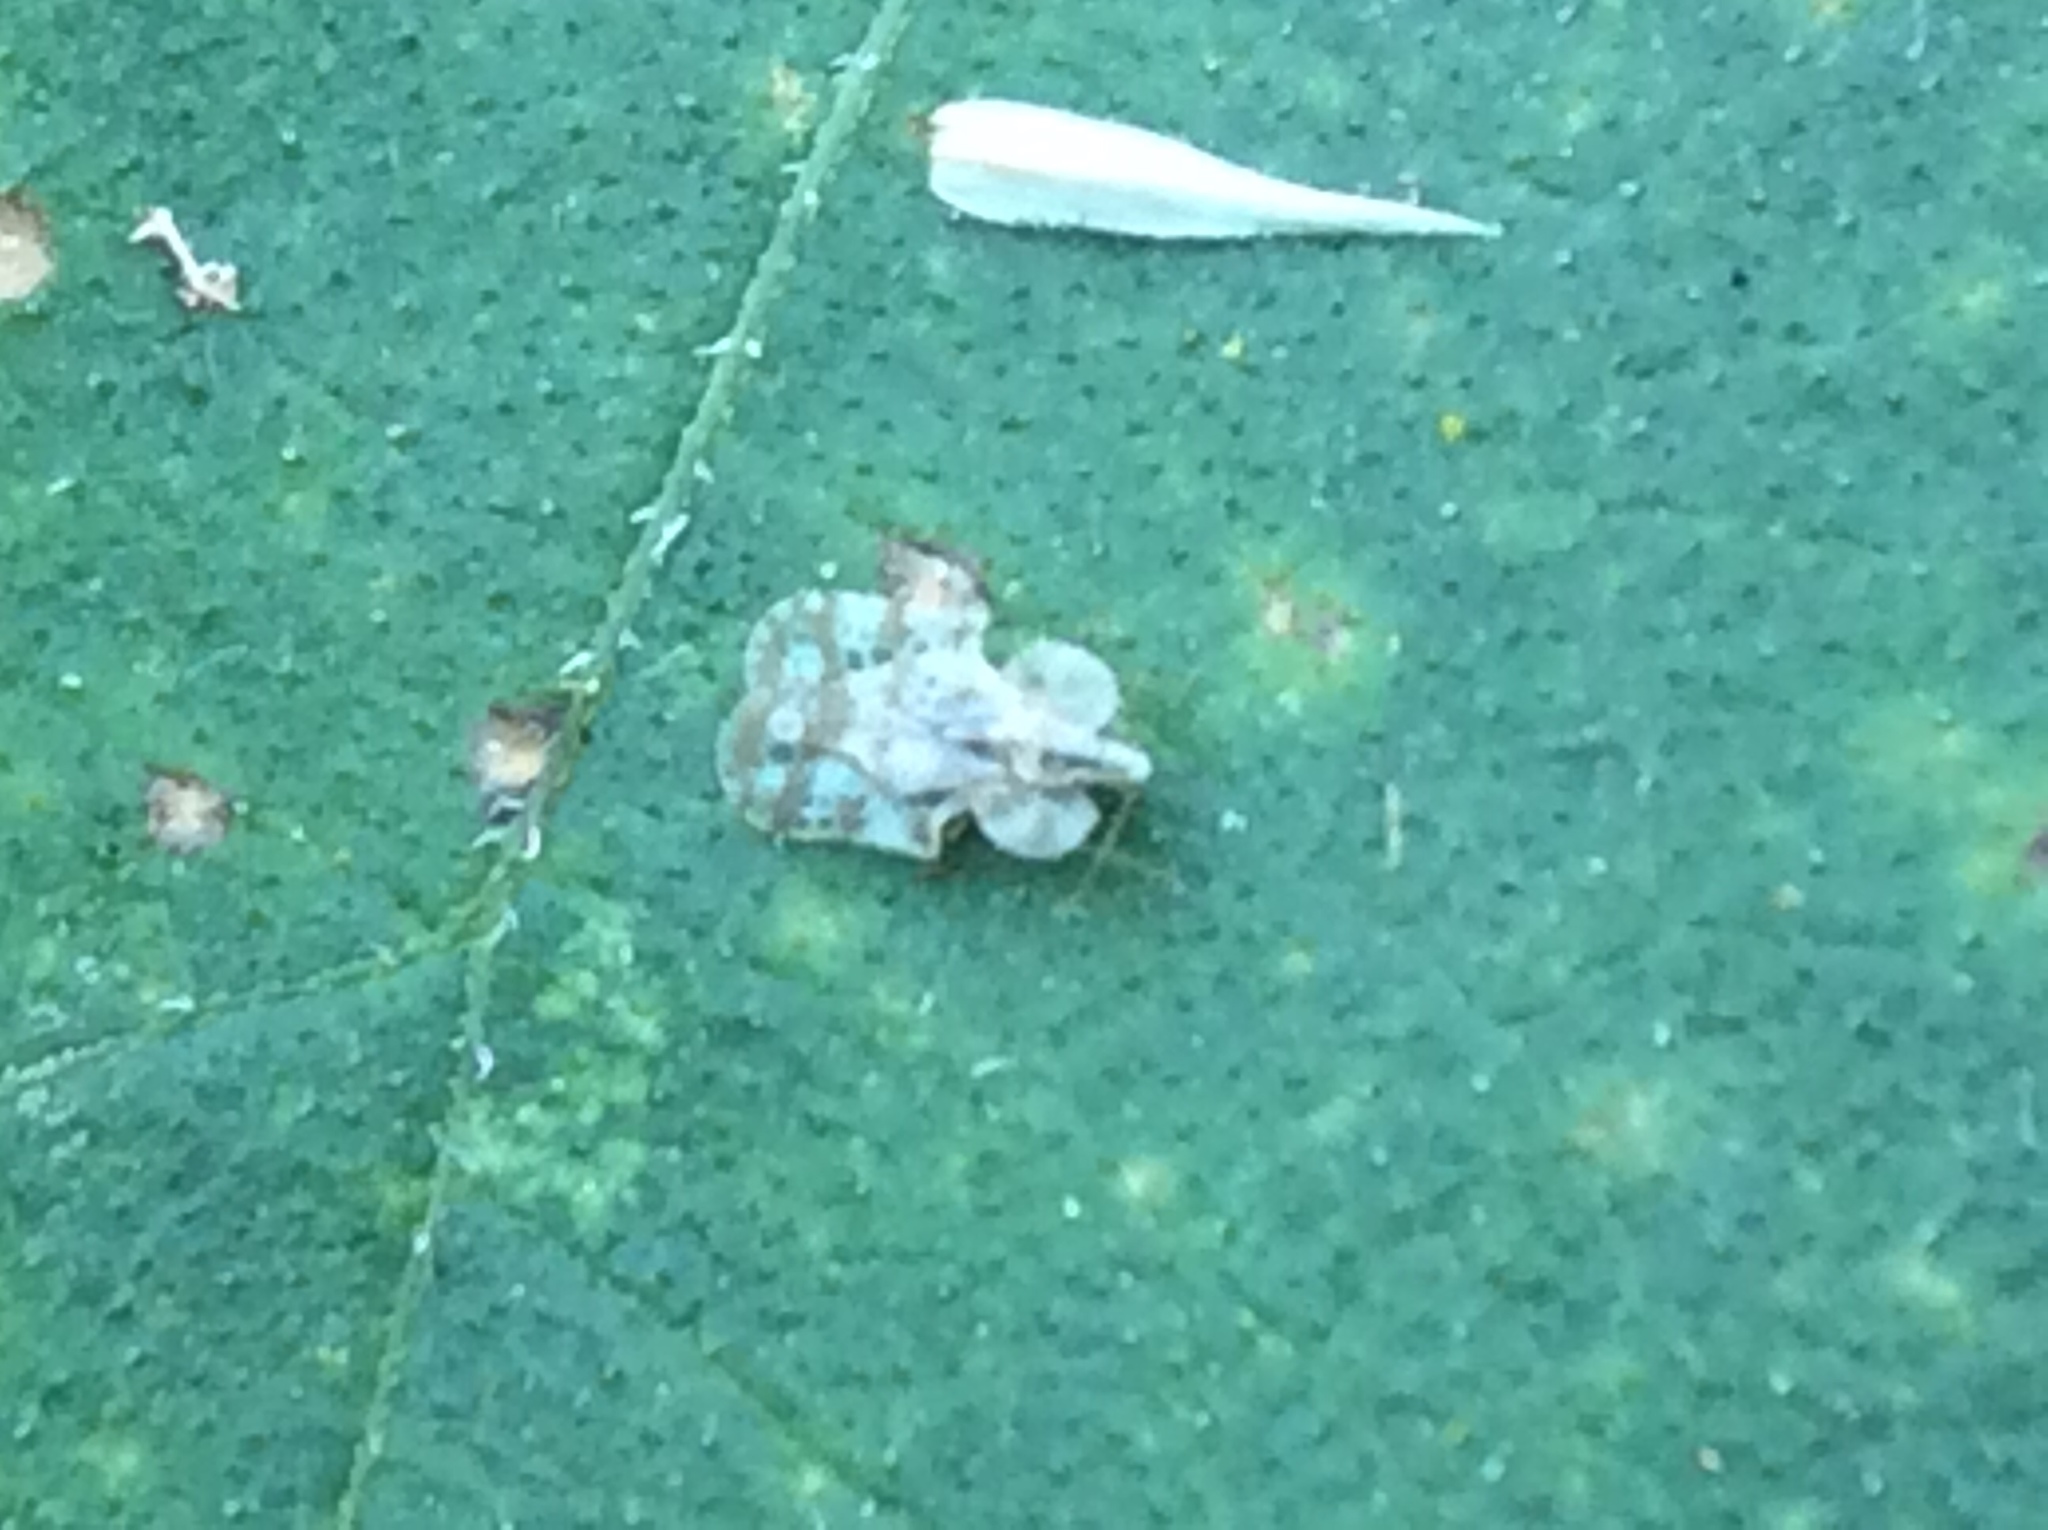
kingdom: Animalia
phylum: Arthropoda
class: Insecta
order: Hemiptera
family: Tingidae
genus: Corythucha
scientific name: Corythucha marmorata
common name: Chrysanthemum lace bug
